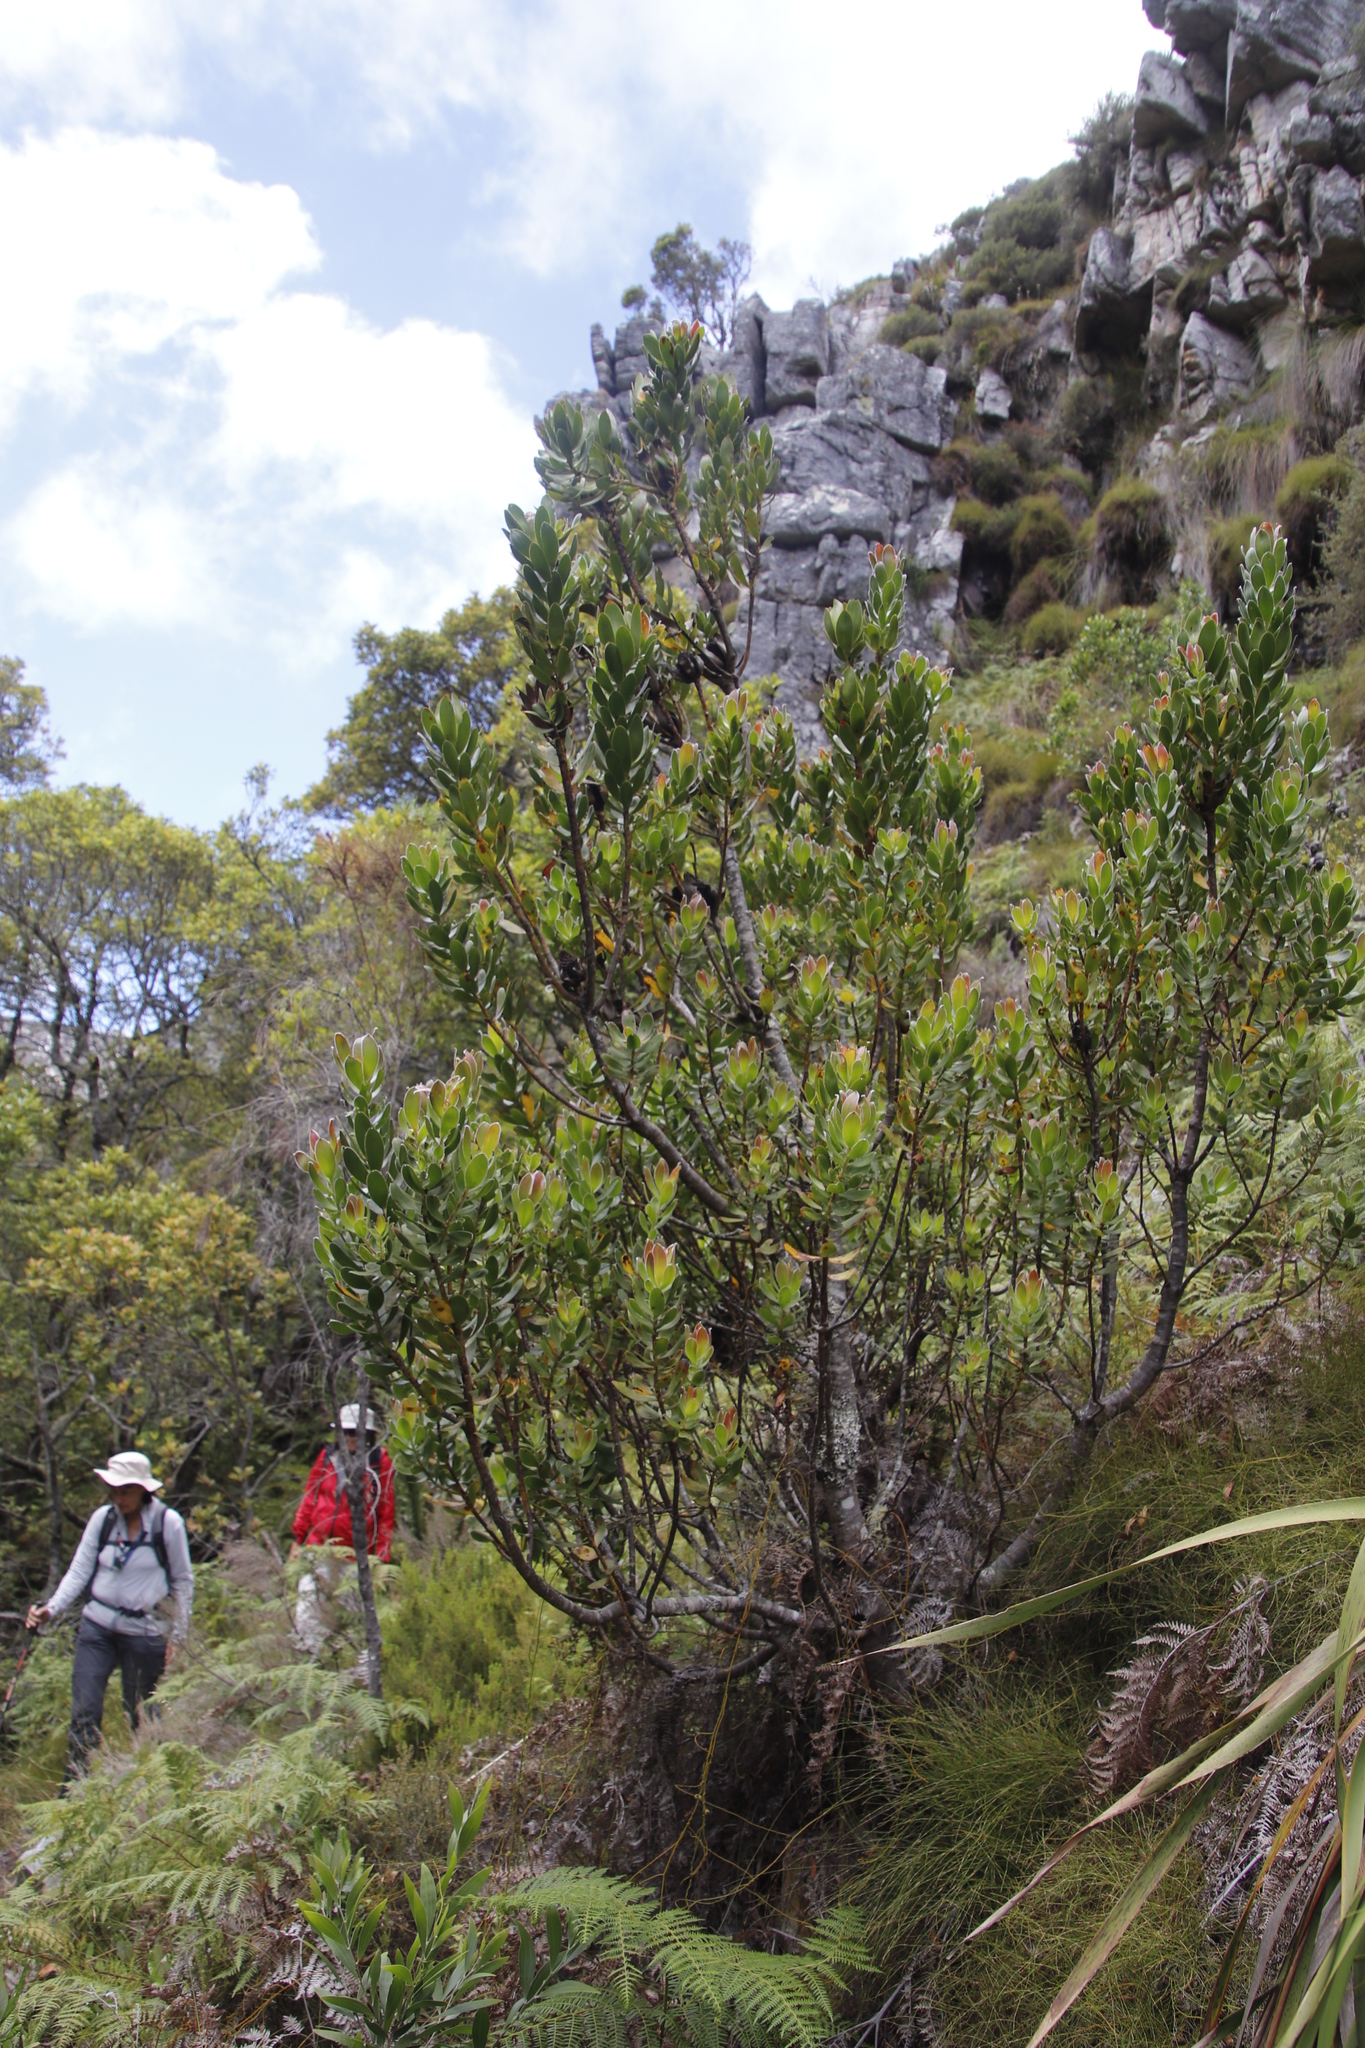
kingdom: Plantae
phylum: Tracheophyta
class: Magnoliopsida
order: Proteales
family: Proteaceae
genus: Leucadendron
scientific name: Leucadendron strobilinum
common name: Mountain rose
